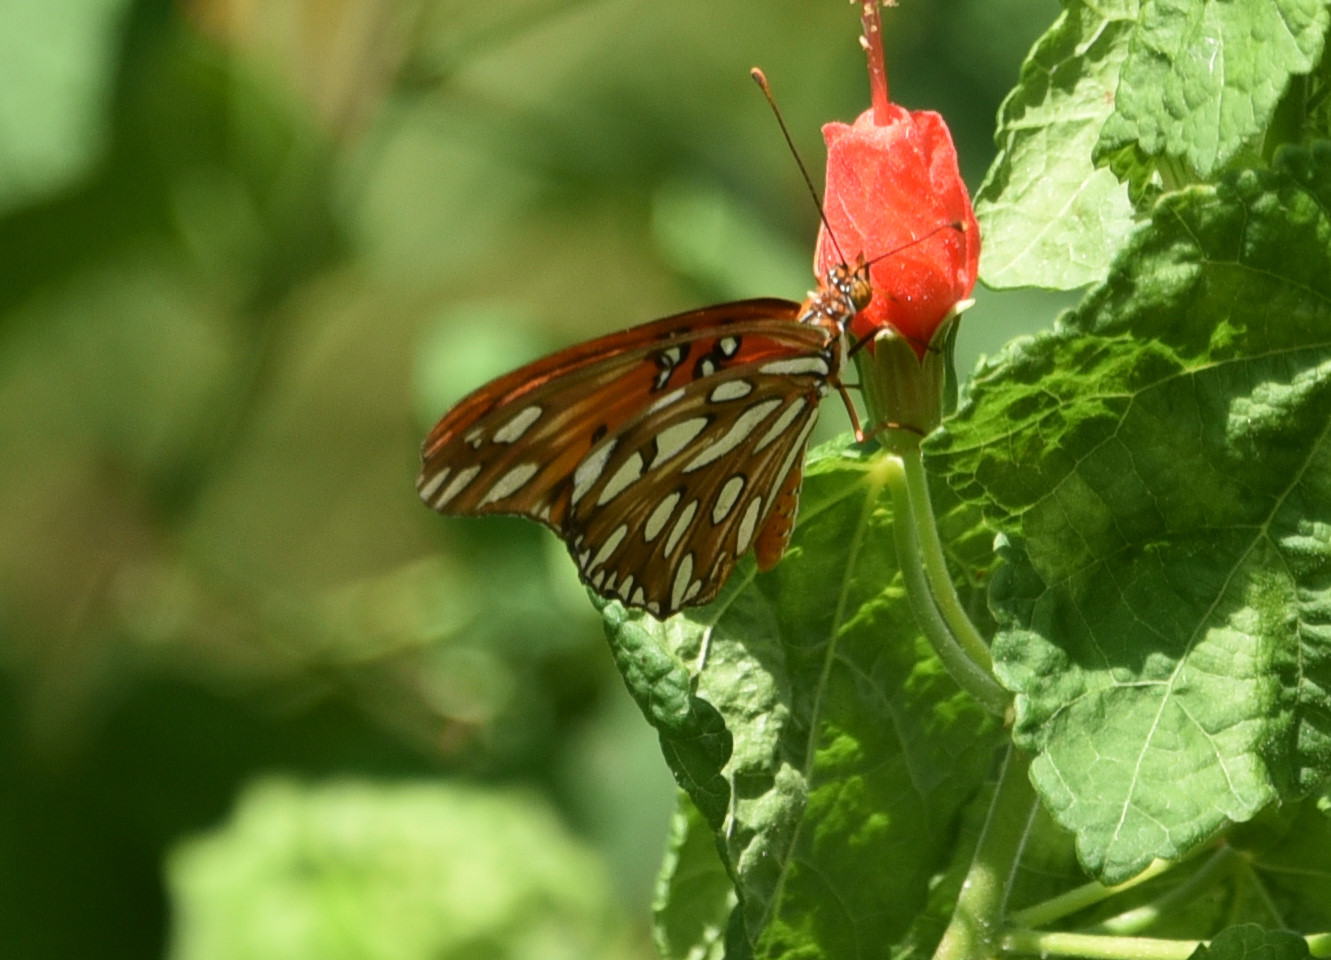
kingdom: Animalia
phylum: Arthropoda
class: Insecta
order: Lepidoptera
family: Nymphalidae
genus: Dione
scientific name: Dione vanillae
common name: Gulf fritillary
